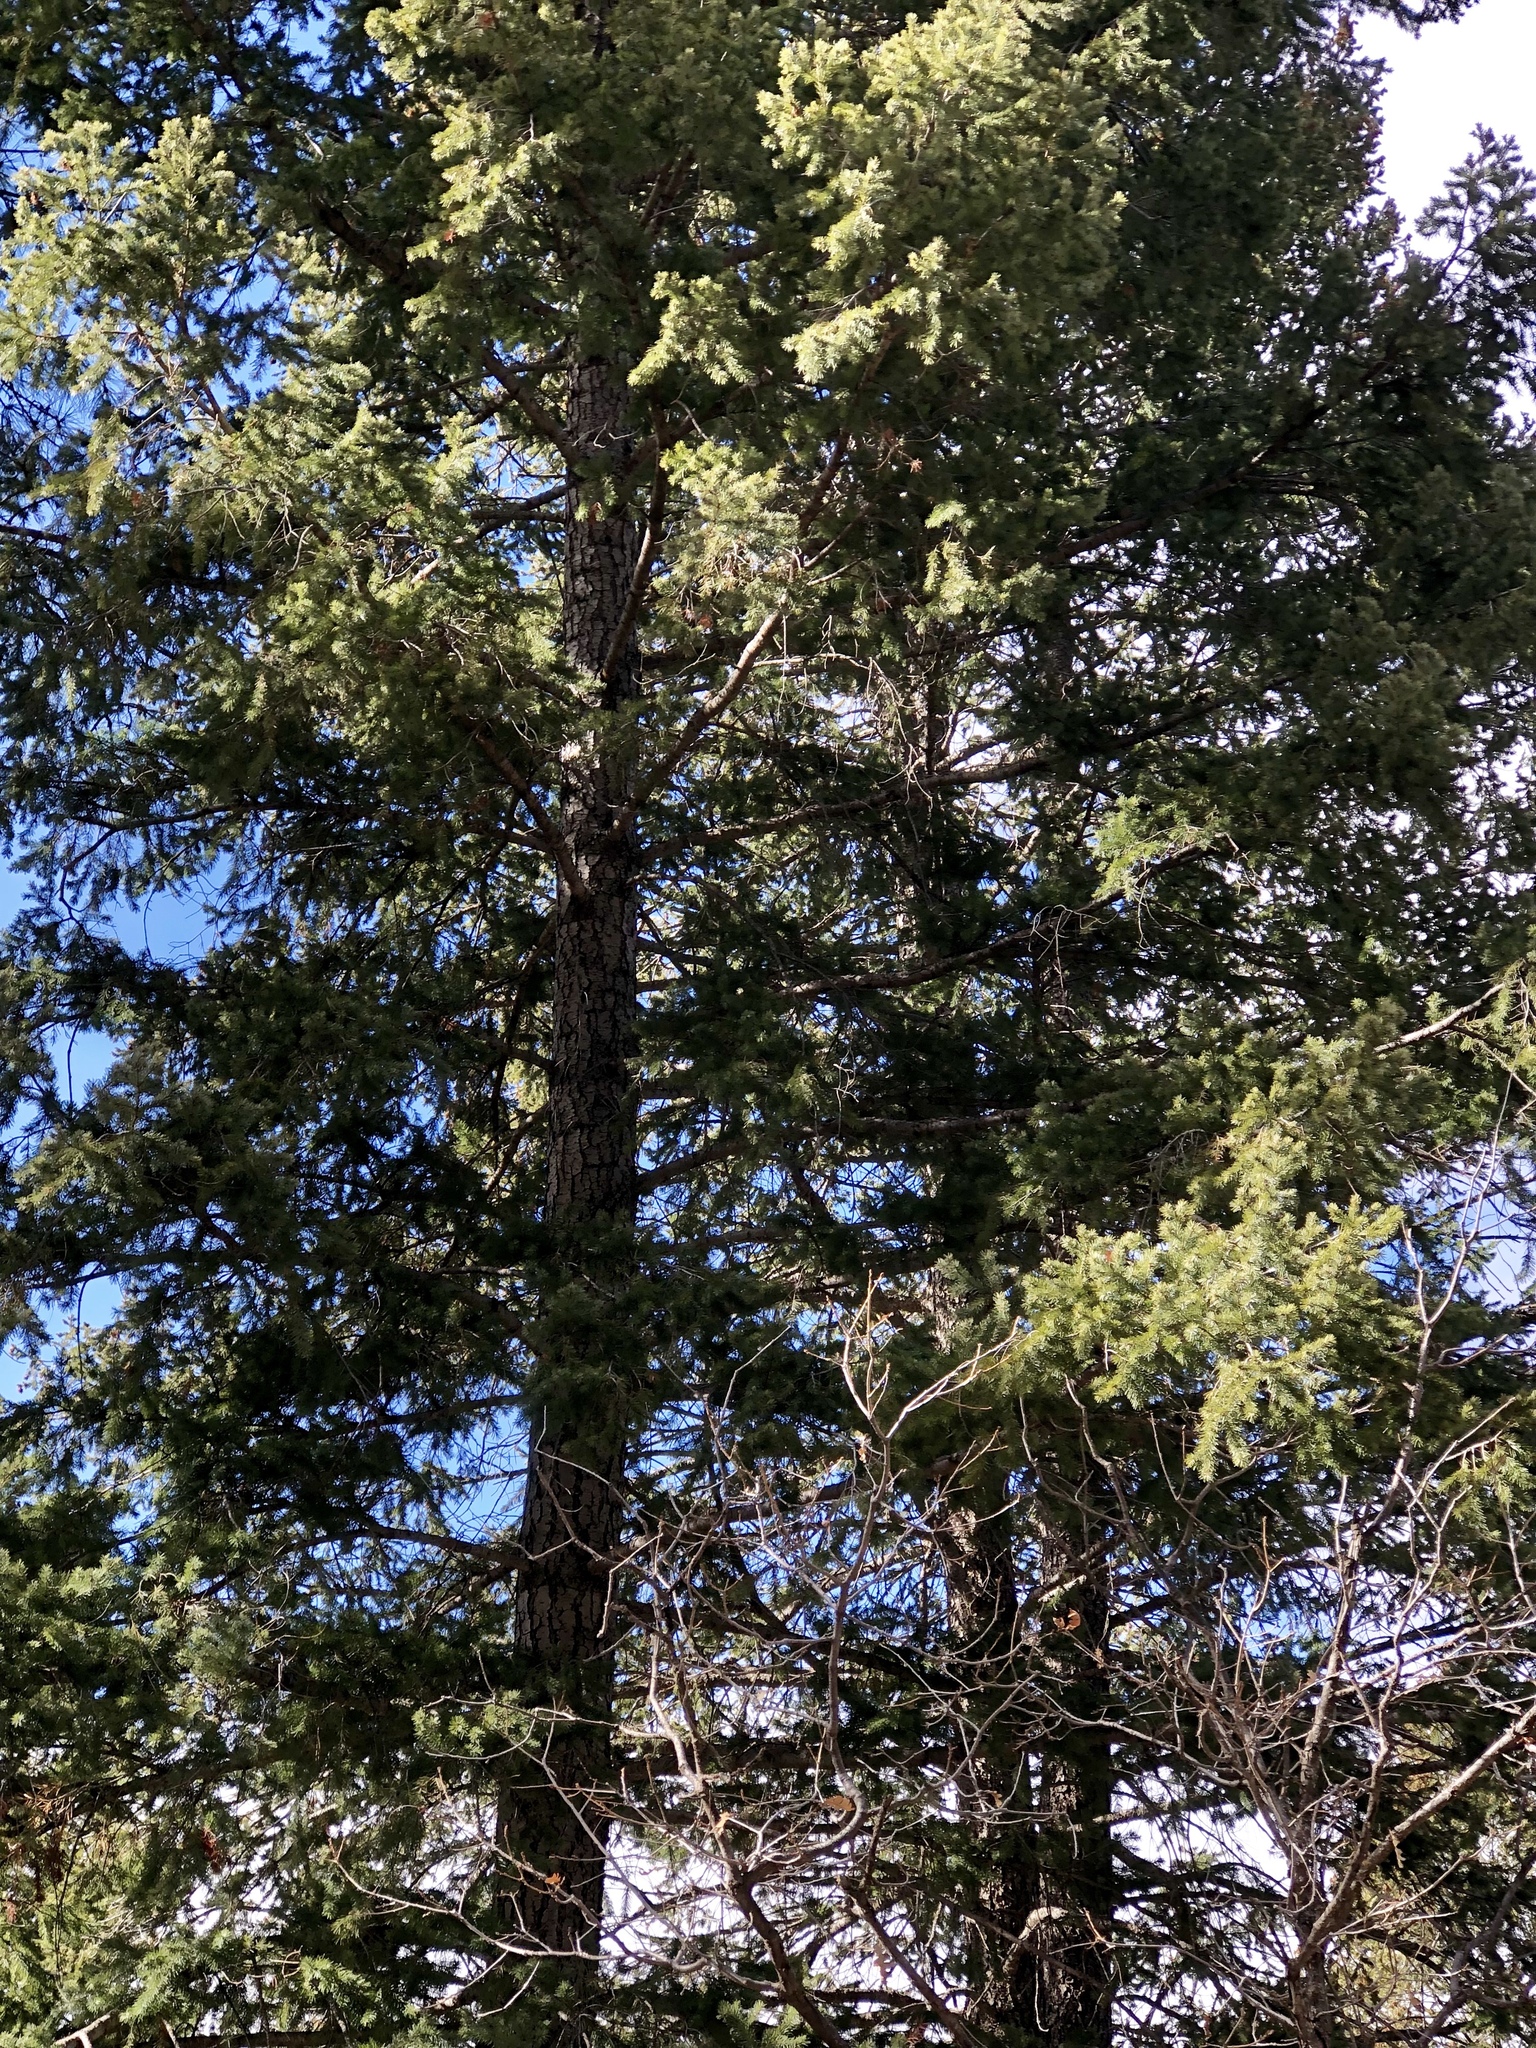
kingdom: Plantae
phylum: Tracheophyta
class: Pinopsida
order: Pinales
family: Pinaceae
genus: Pseudotsuga
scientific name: Pseudotsuga menziesii
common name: Douglas fir
